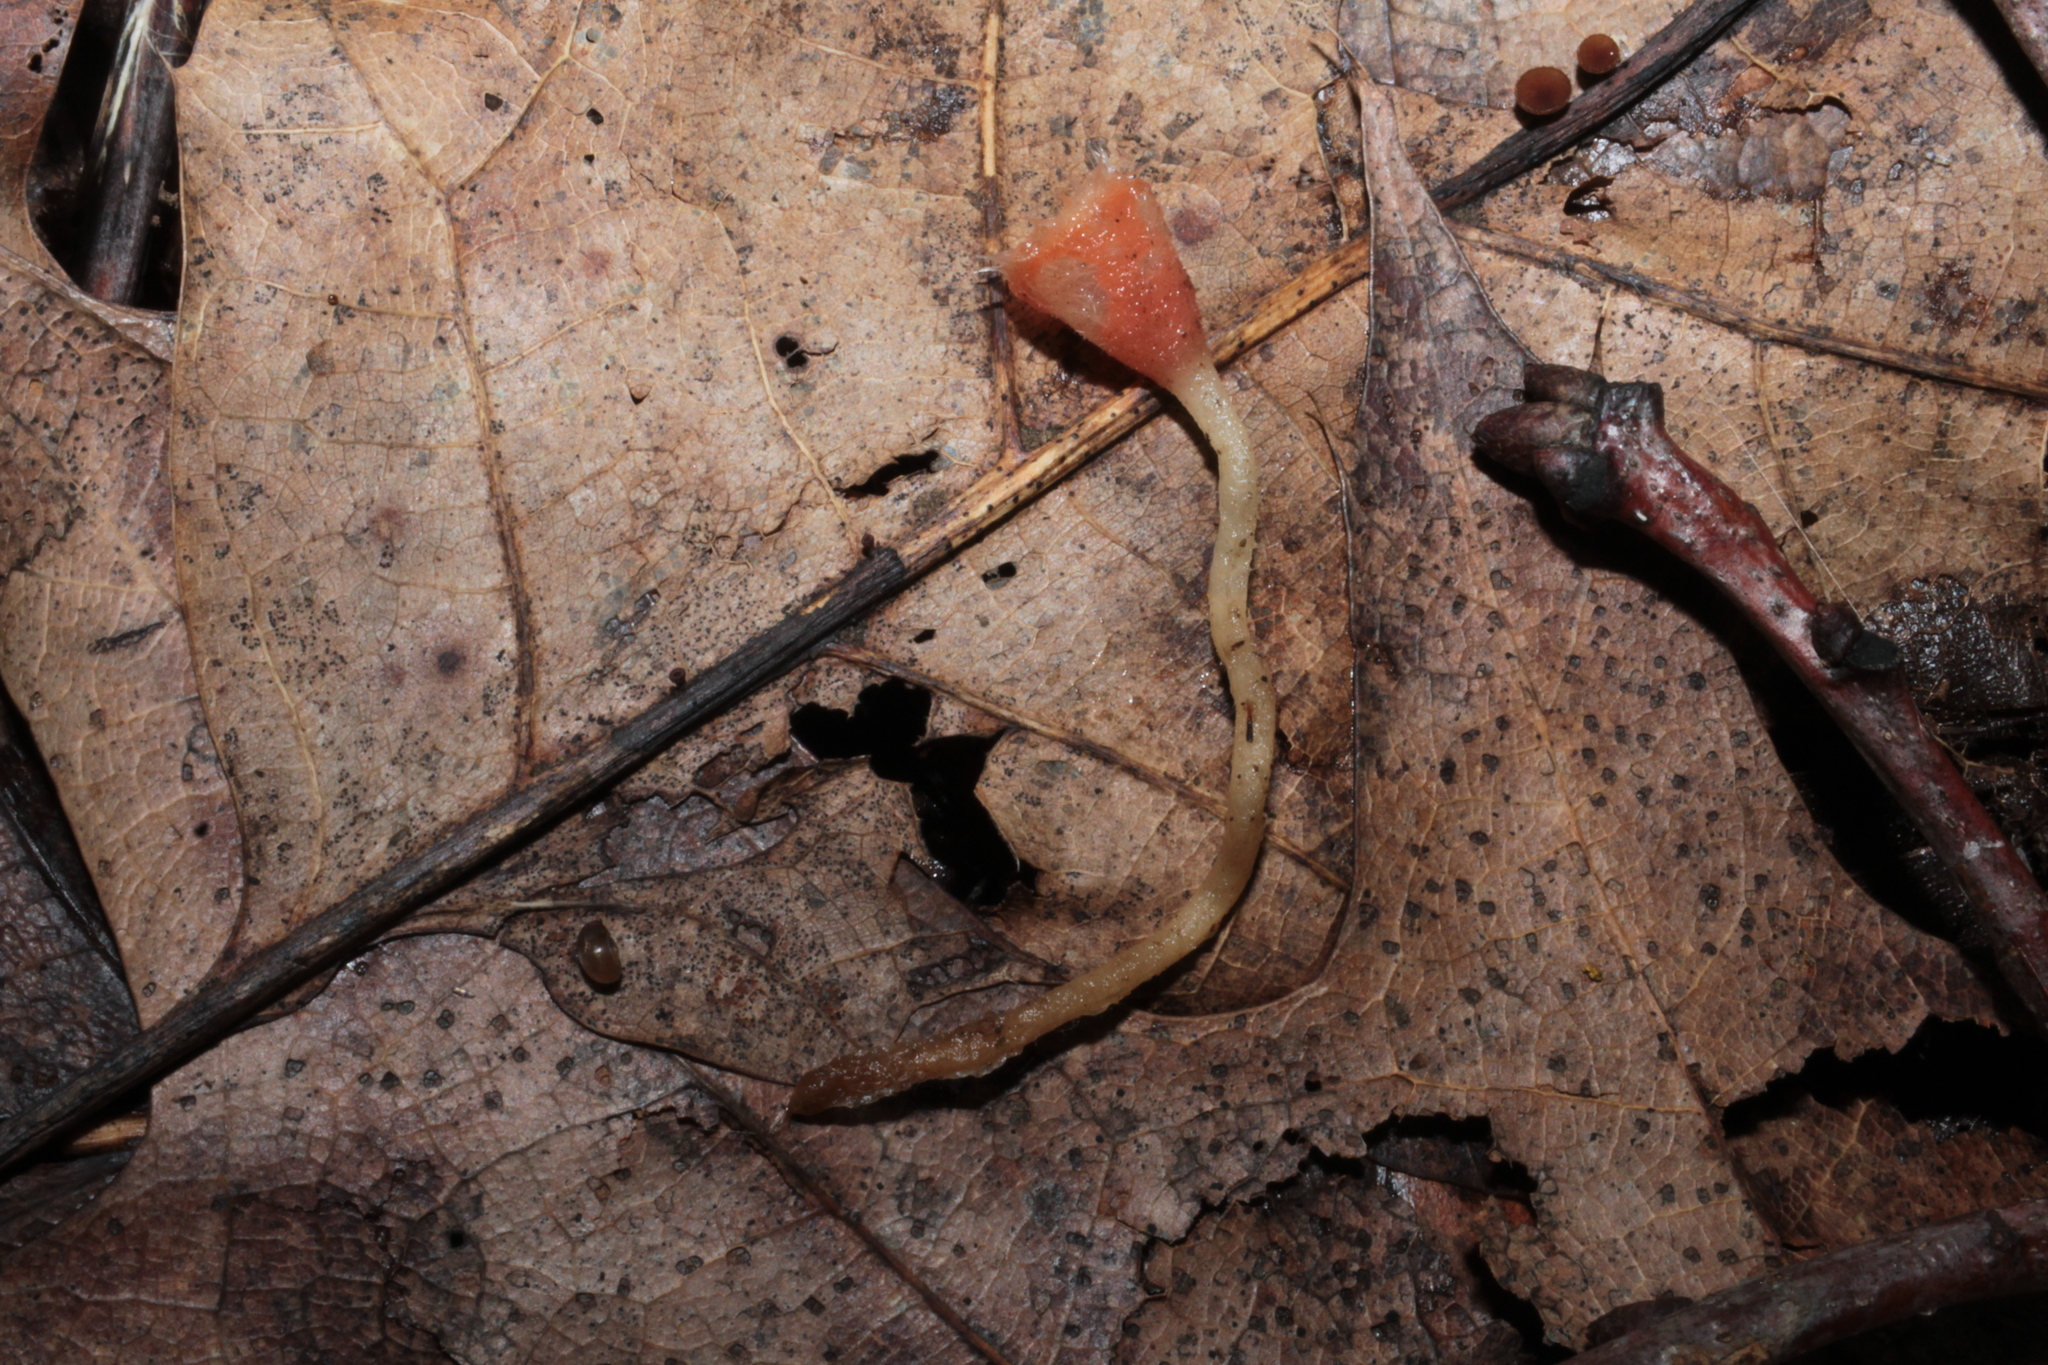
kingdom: Fungi
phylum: Ascomycota
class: Pezizomycetes
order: Pezizales
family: Sarcoscyphaceae
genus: Microstoma
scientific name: Microstoma floccosum
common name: Pink fringed faery cup
